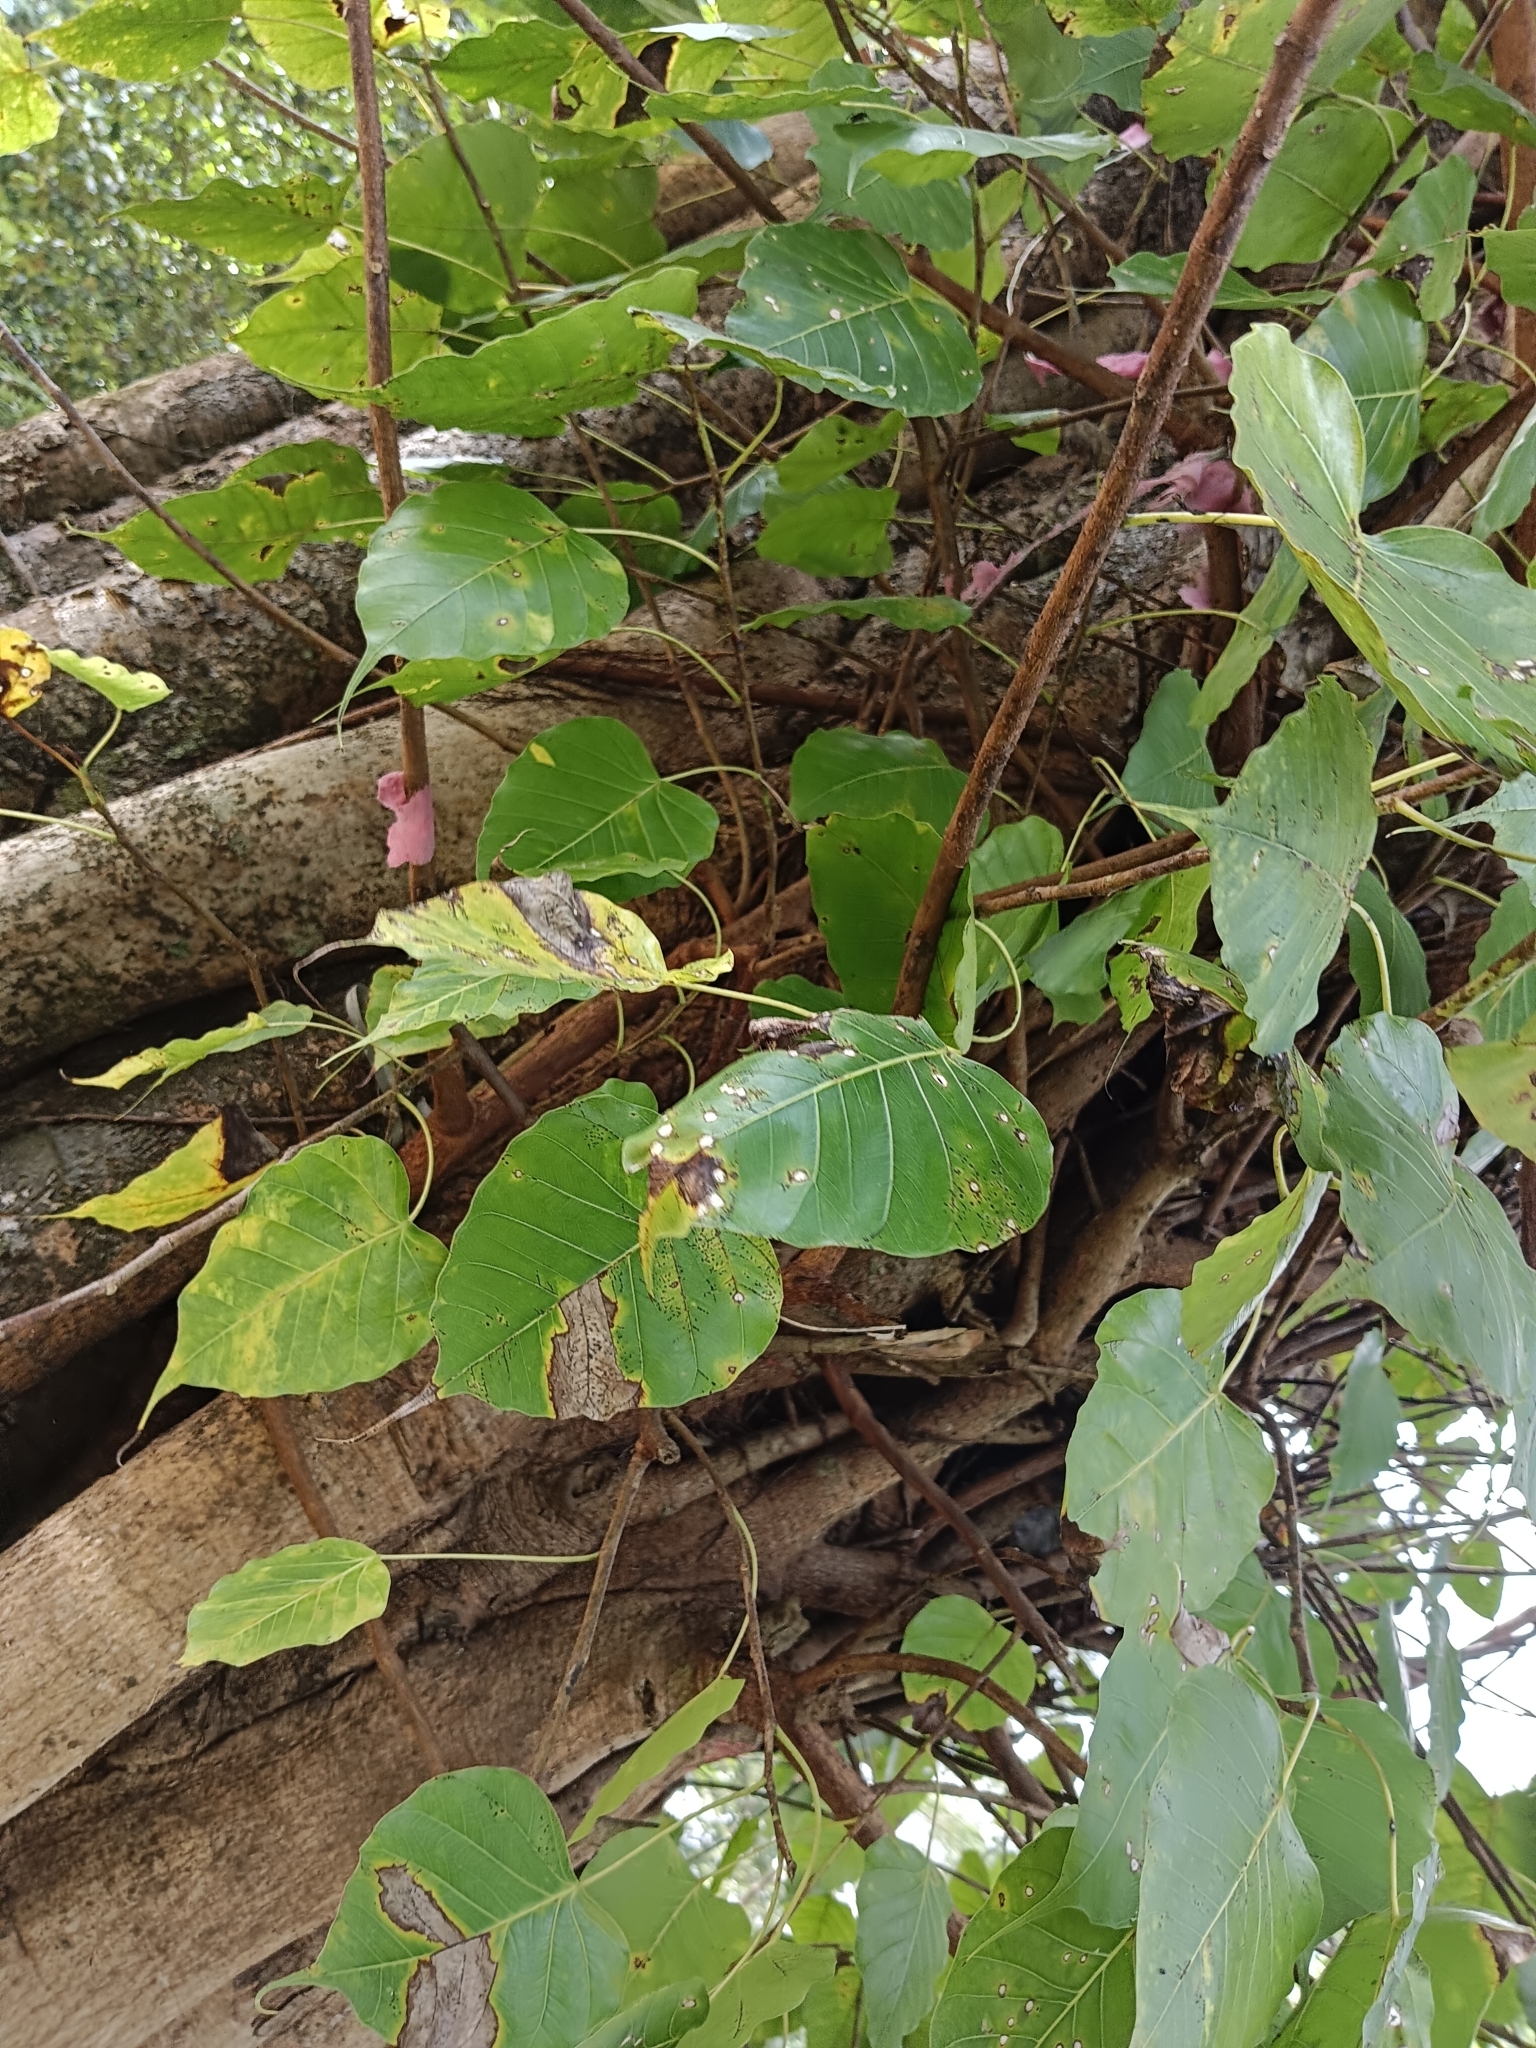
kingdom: Plantae
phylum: Tracheophyta
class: Magnoliopsida
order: Rosales
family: Moraceae
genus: Ficus
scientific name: Ficus religiosa
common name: Bodhi tree
